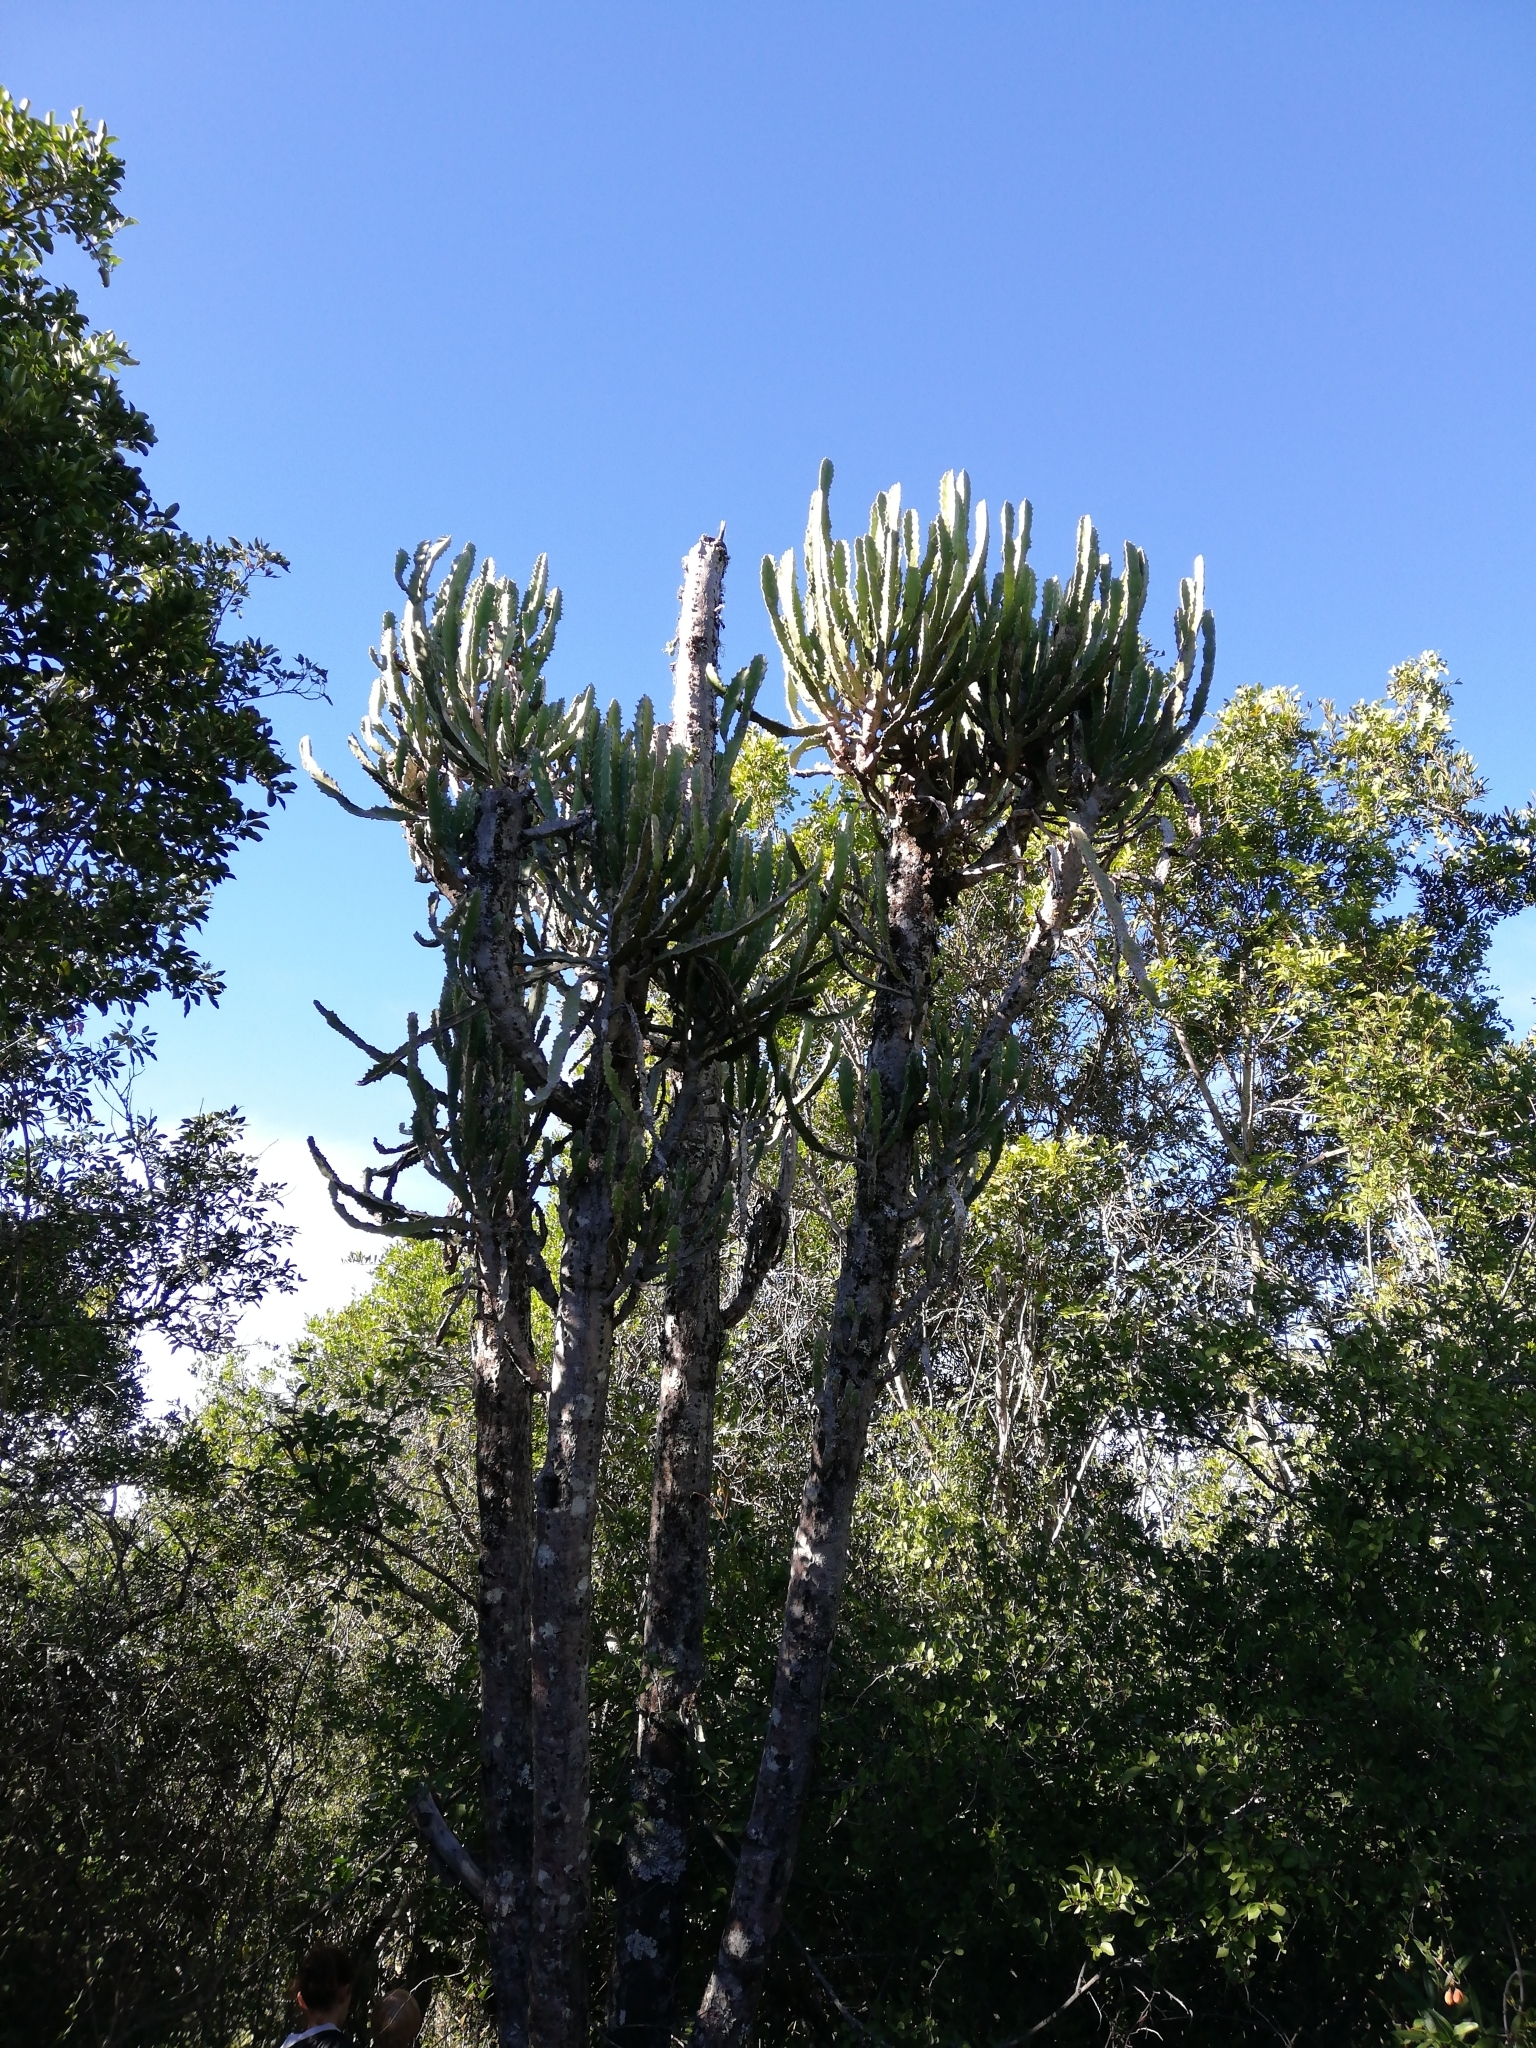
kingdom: Plantae
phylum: Tracheophyta
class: Magnoliopsida
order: Malpighiales
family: Euphorbiaceae
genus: Euphorbia
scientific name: Euphorbia triangularis
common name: Chandelier tree
